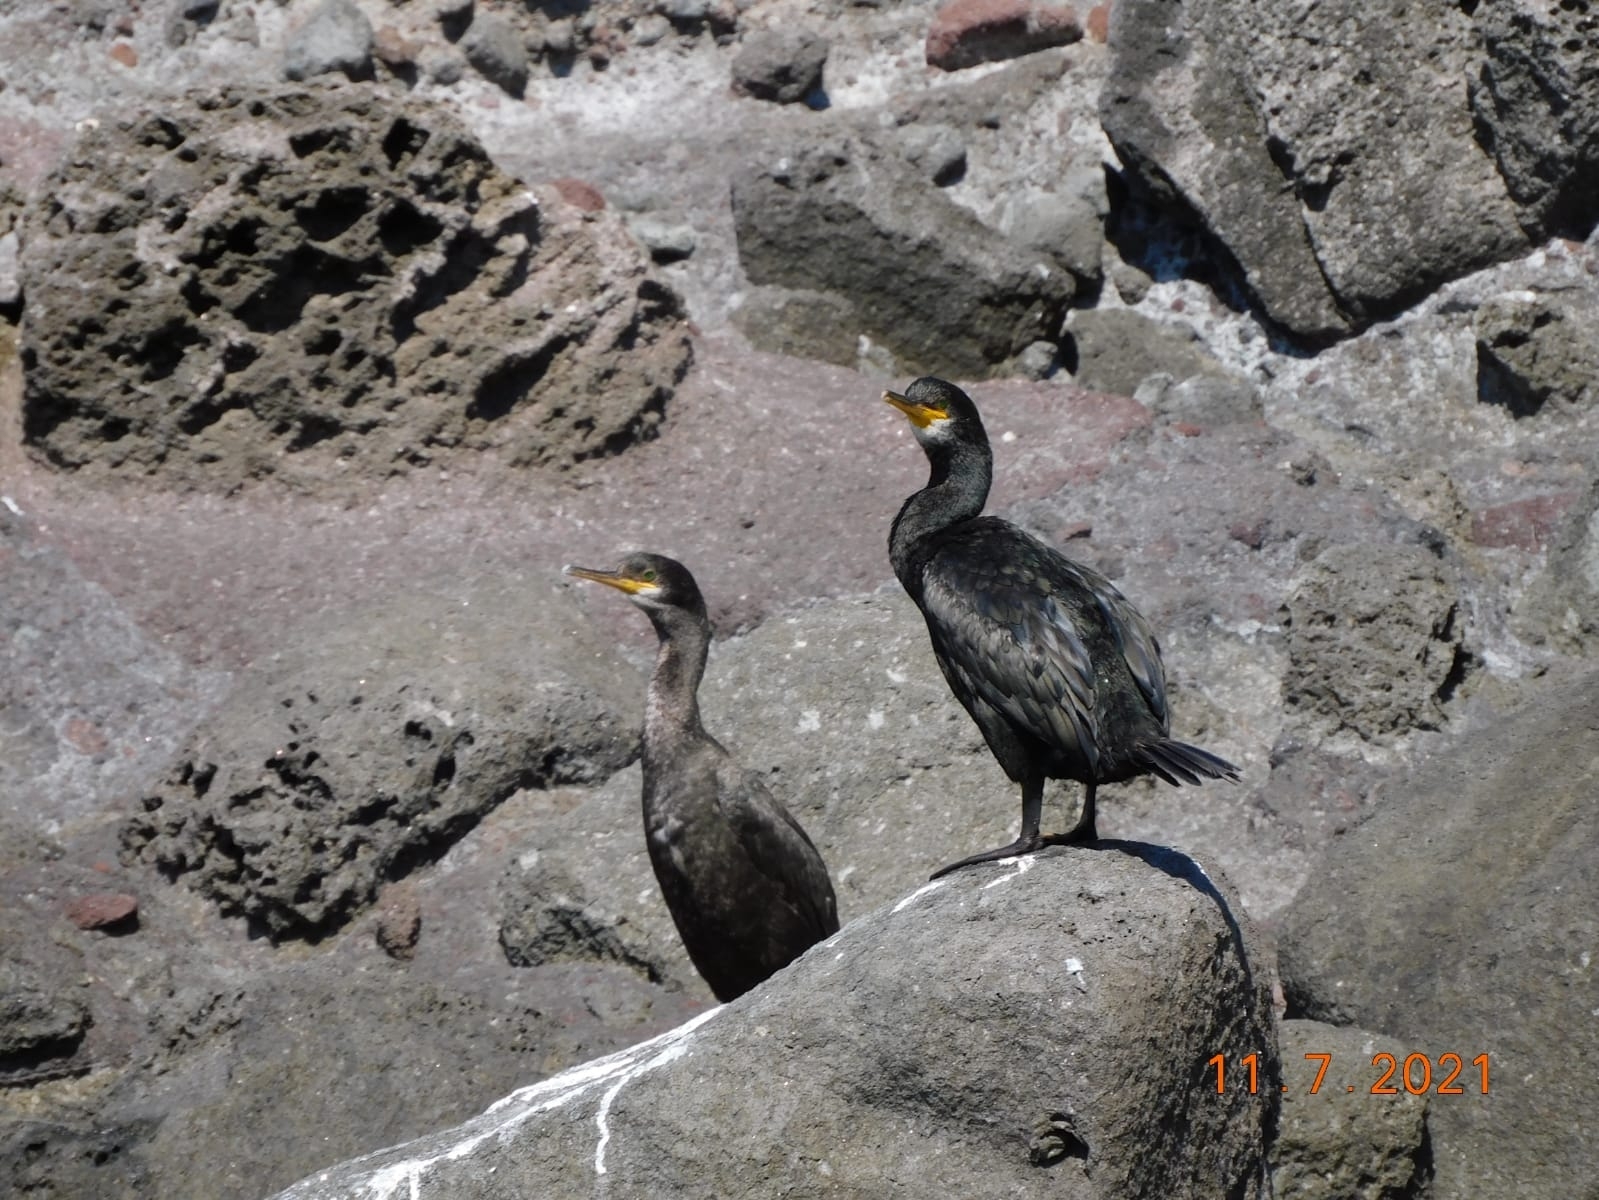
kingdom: Animalia
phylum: Chordata
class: Aves
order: Suliformes
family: Phalacrocoracidae
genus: Phalacrocorax
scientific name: Phalacrocorax aristotelis
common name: European shag
